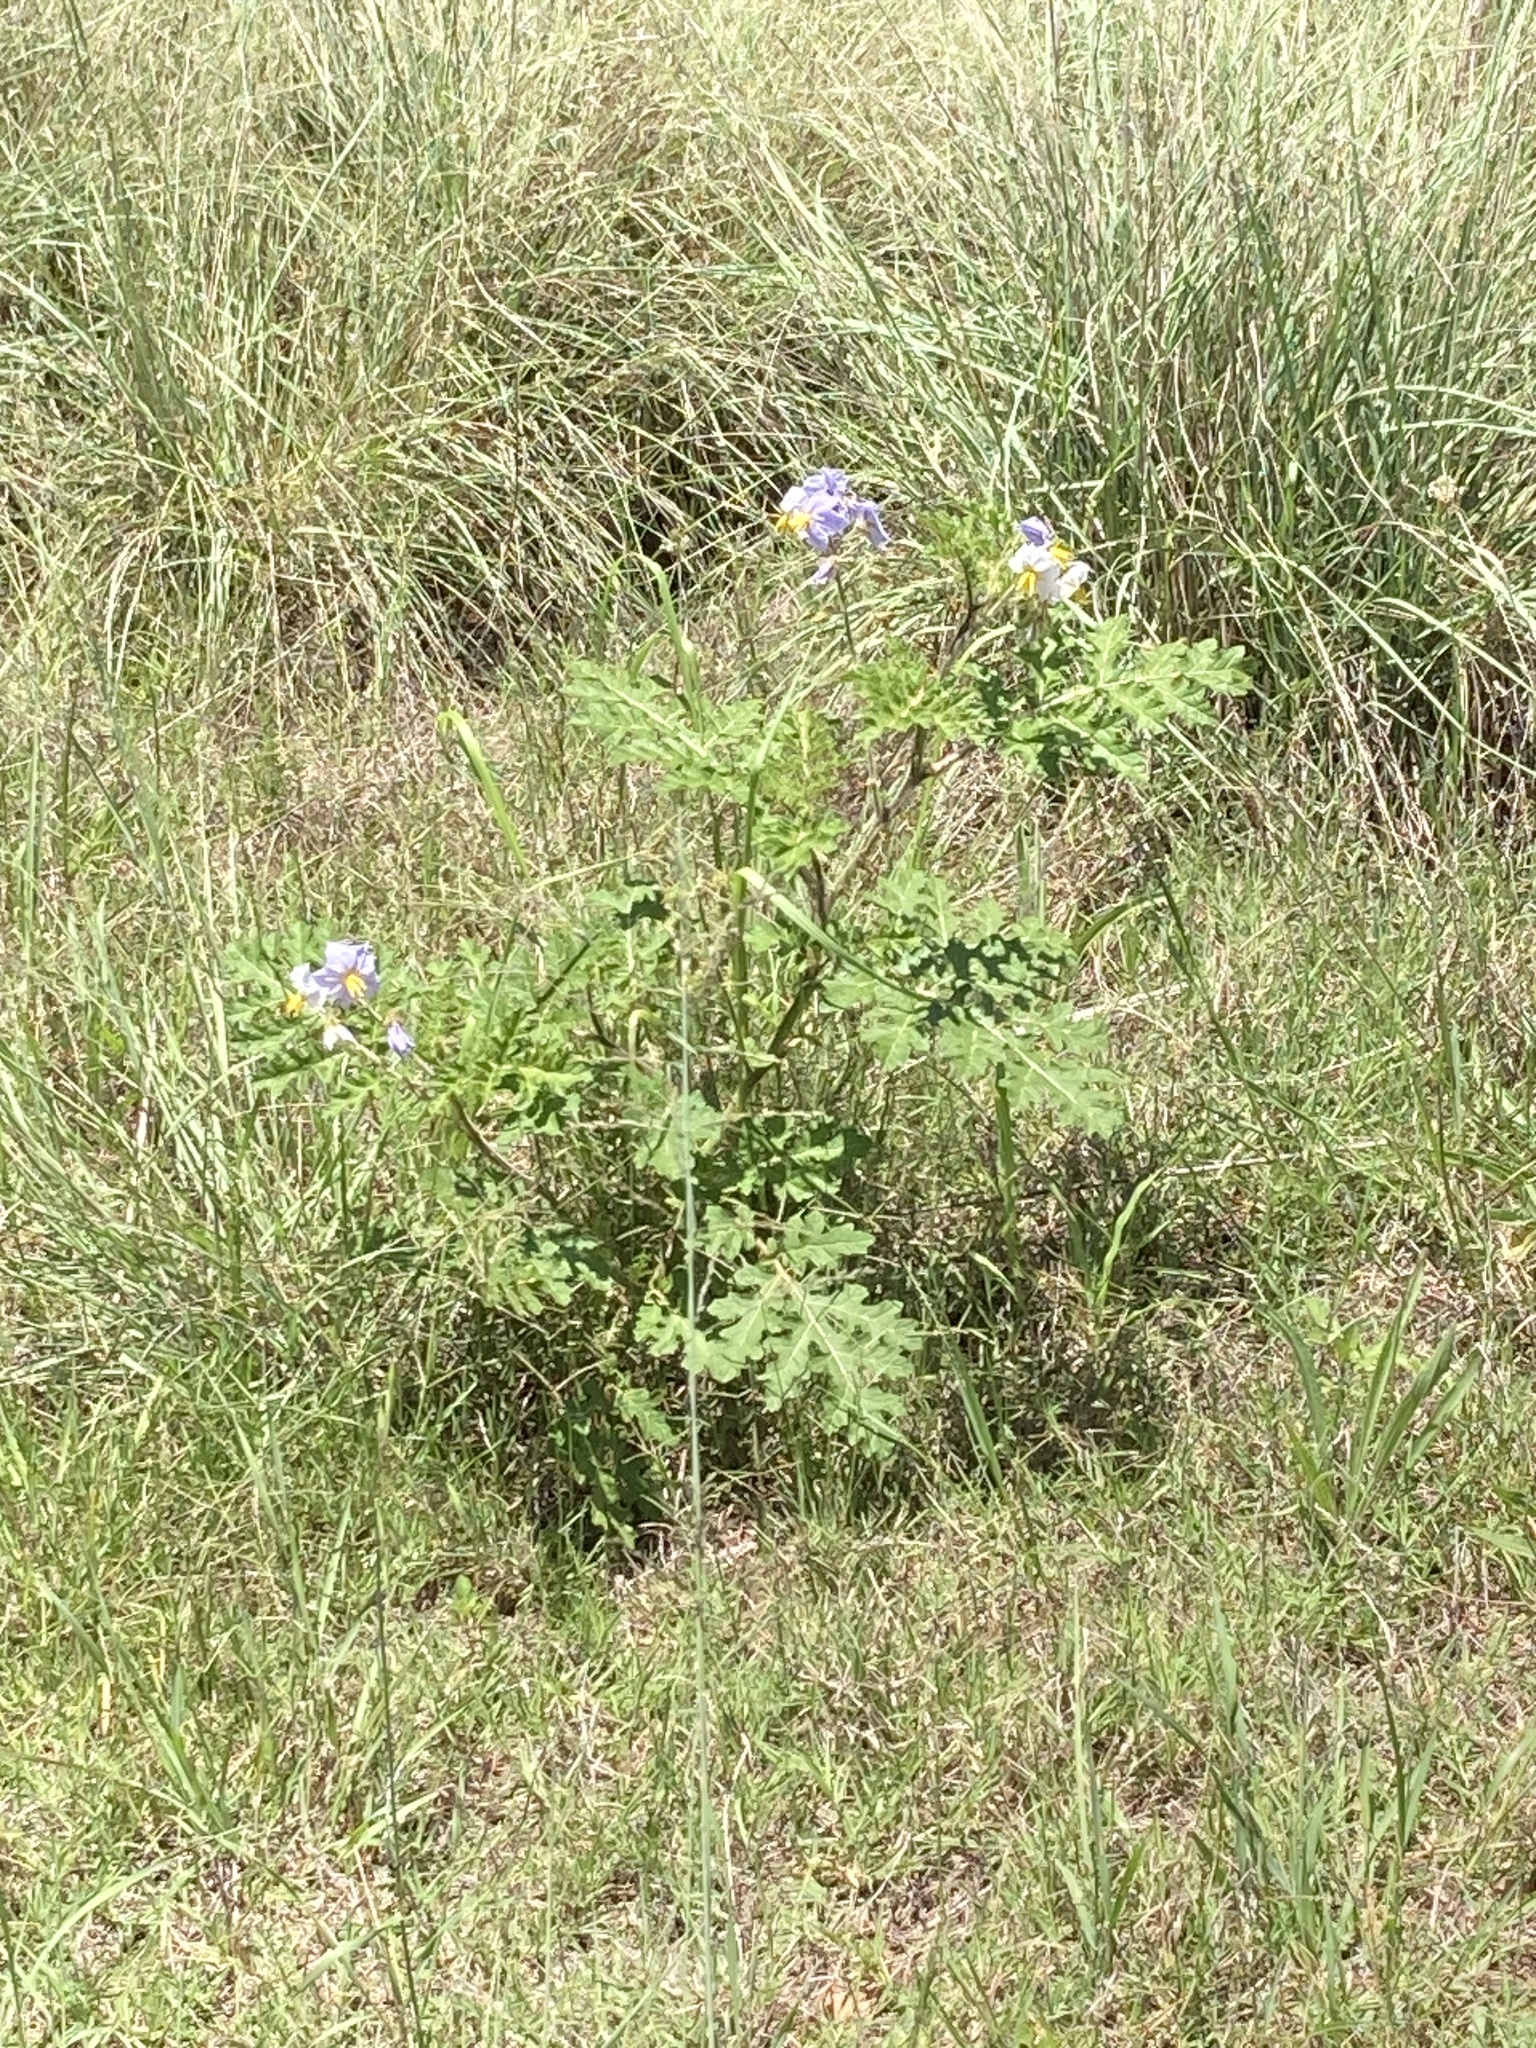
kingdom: Plantae
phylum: Tracheophyta
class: Magnoliopsida
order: Solanales
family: Solanaceae
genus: Solanum
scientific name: Solanum sisymbriifolium
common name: Red buffalo-bur
